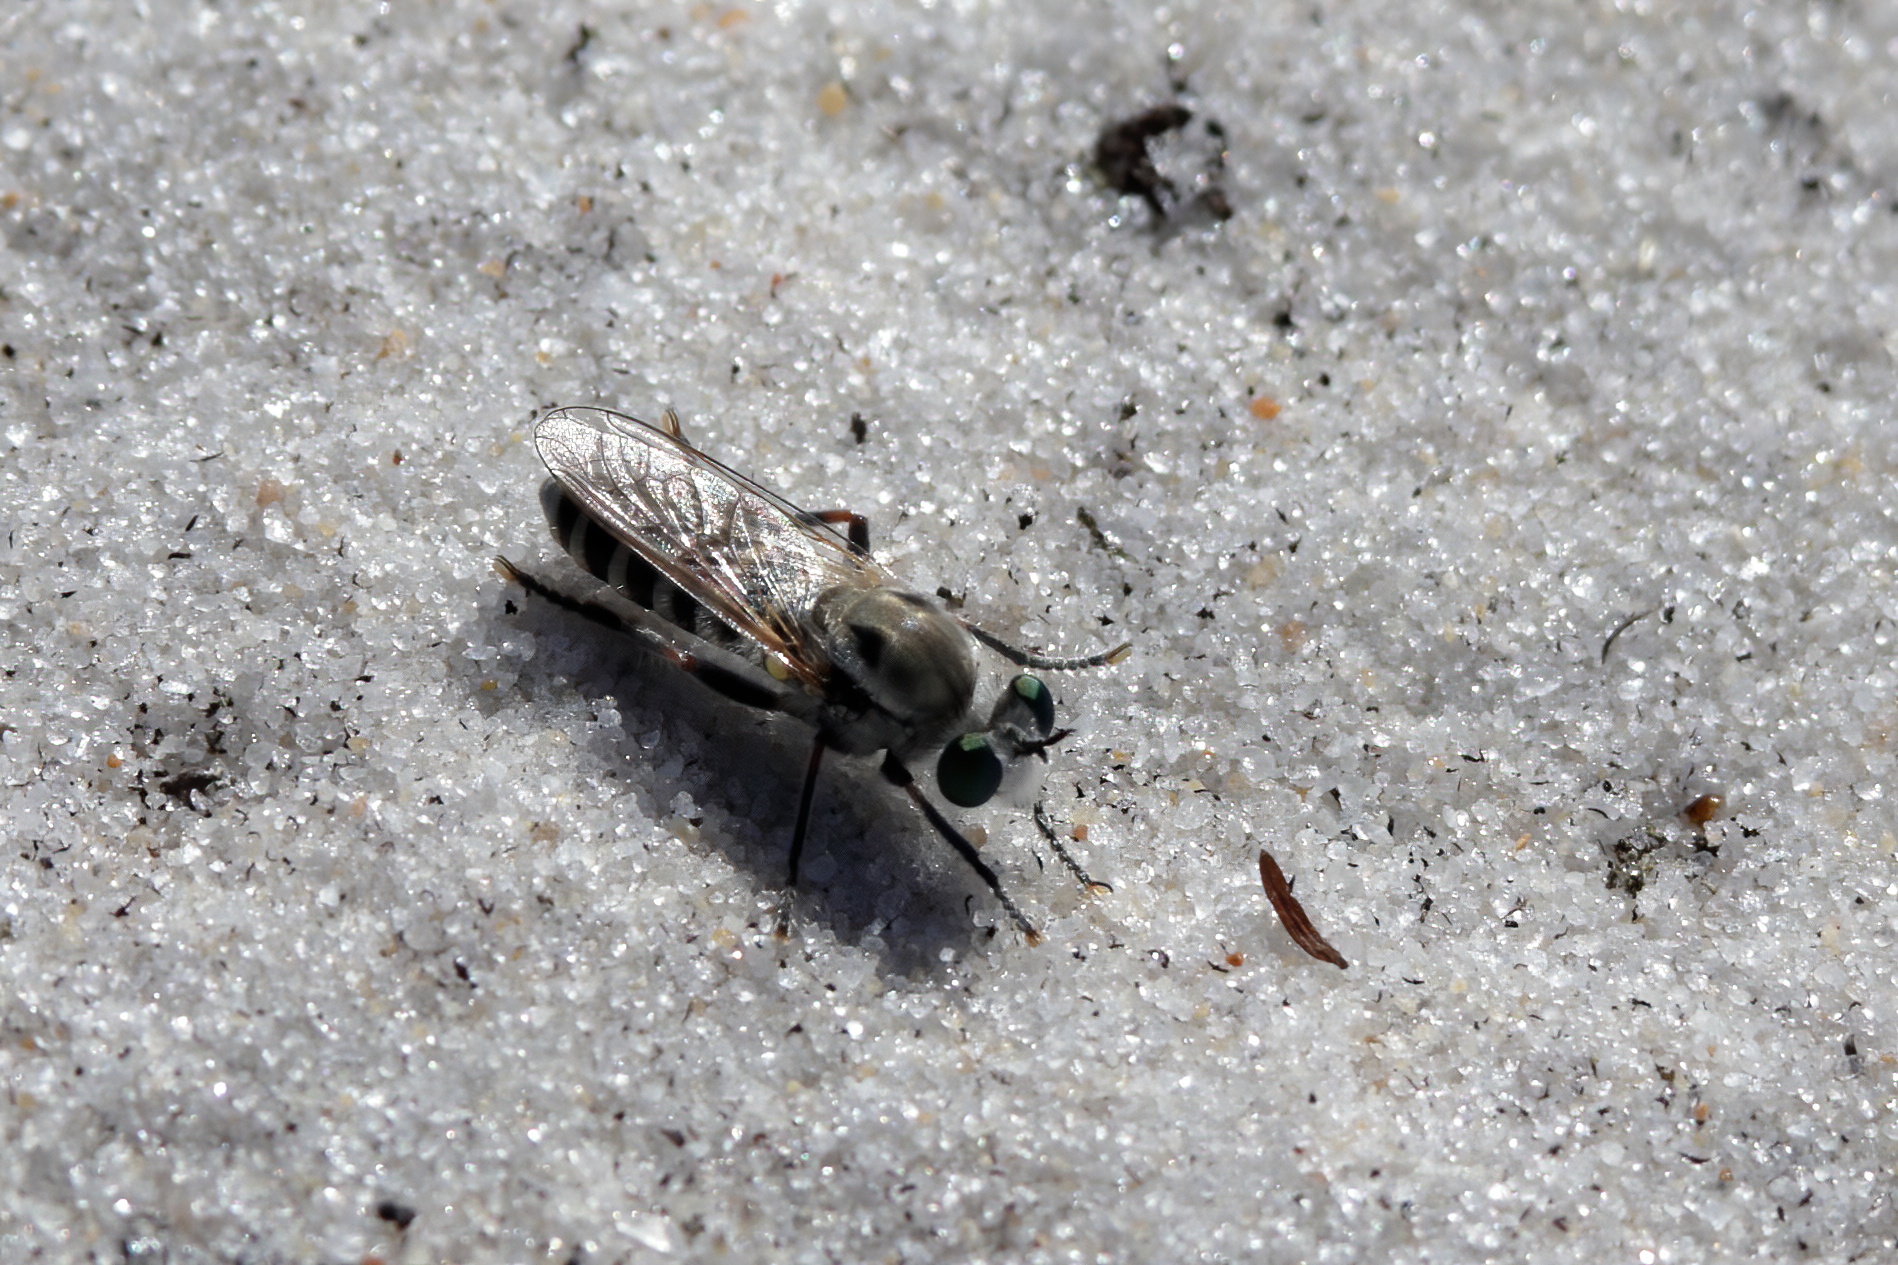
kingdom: Animalia
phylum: Arthropoda
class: Insecta
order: Diptera
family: Asilidae
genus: Laphystia
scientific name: Laphystia texensis
